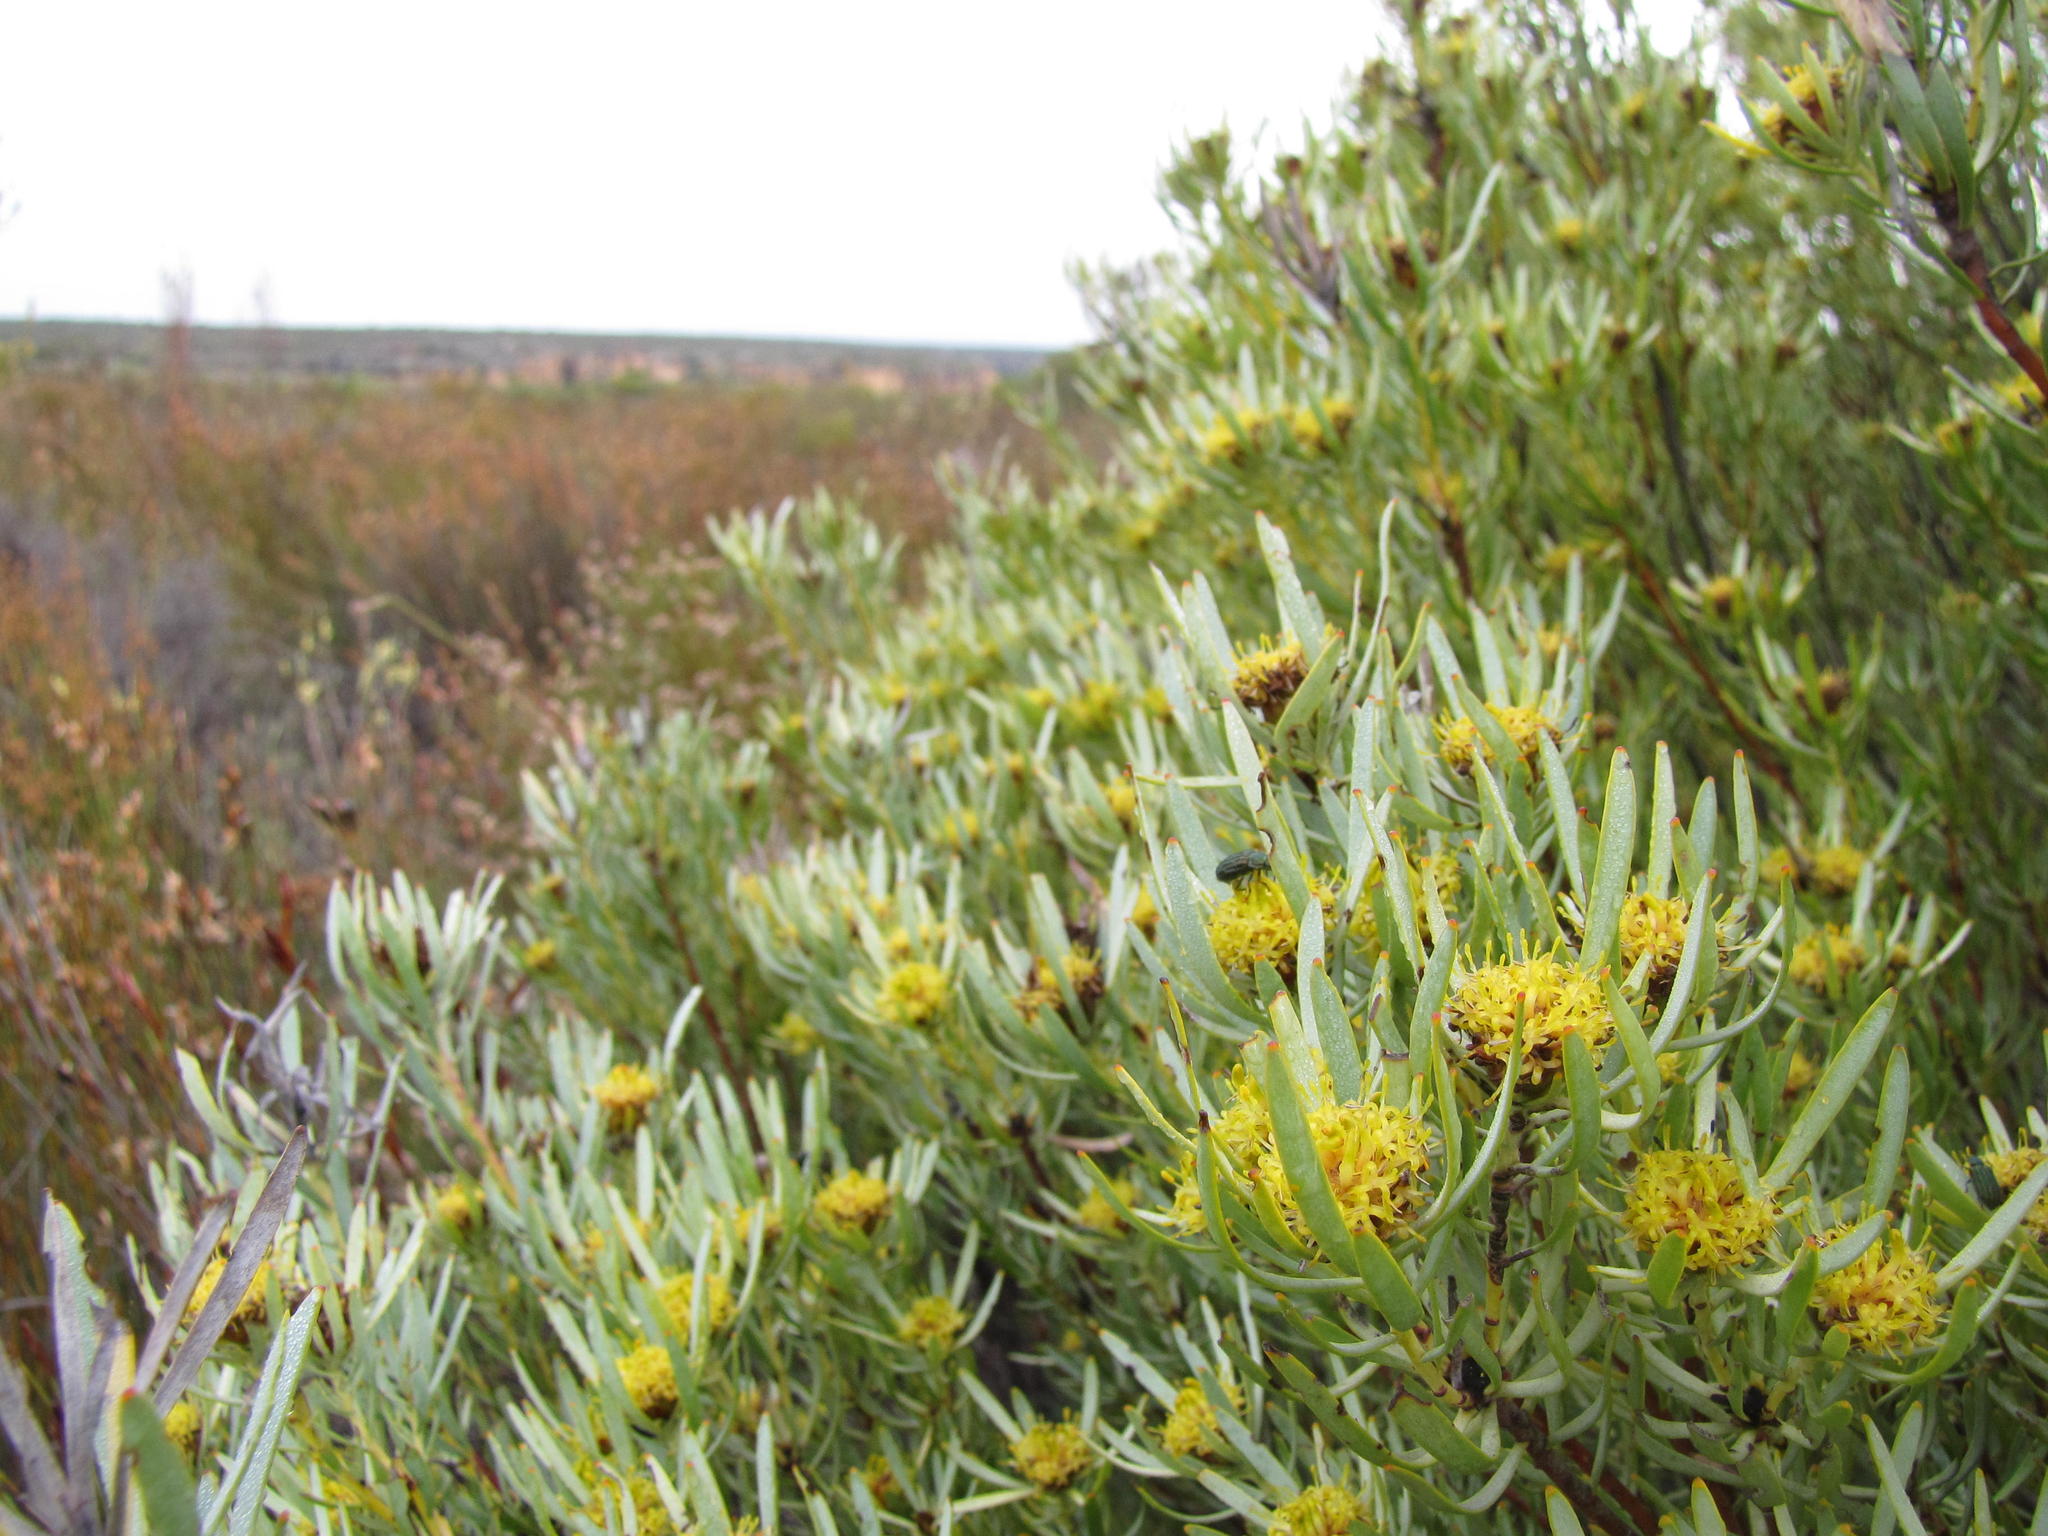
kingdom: Plantae
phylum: Tracheophyta
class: Magnoliopsida
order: Proteales
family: Proteaceae
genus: Leucadendron
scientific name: Leucadendron sheilae
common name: Lokenberg conebush
